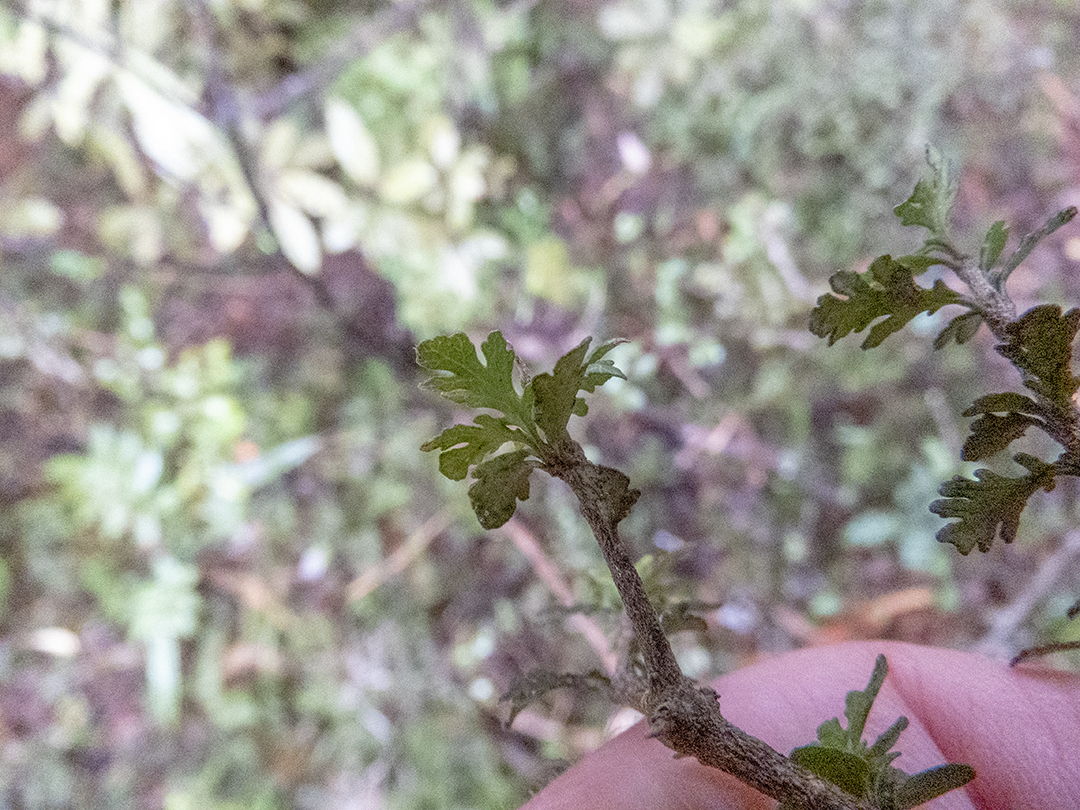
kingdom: Plantae
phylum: Tracheophyta
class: Magnoliopsida
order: Apiales
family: Pittosporaceae
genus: Pittosporum
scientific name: Pittosporum divaricatum
